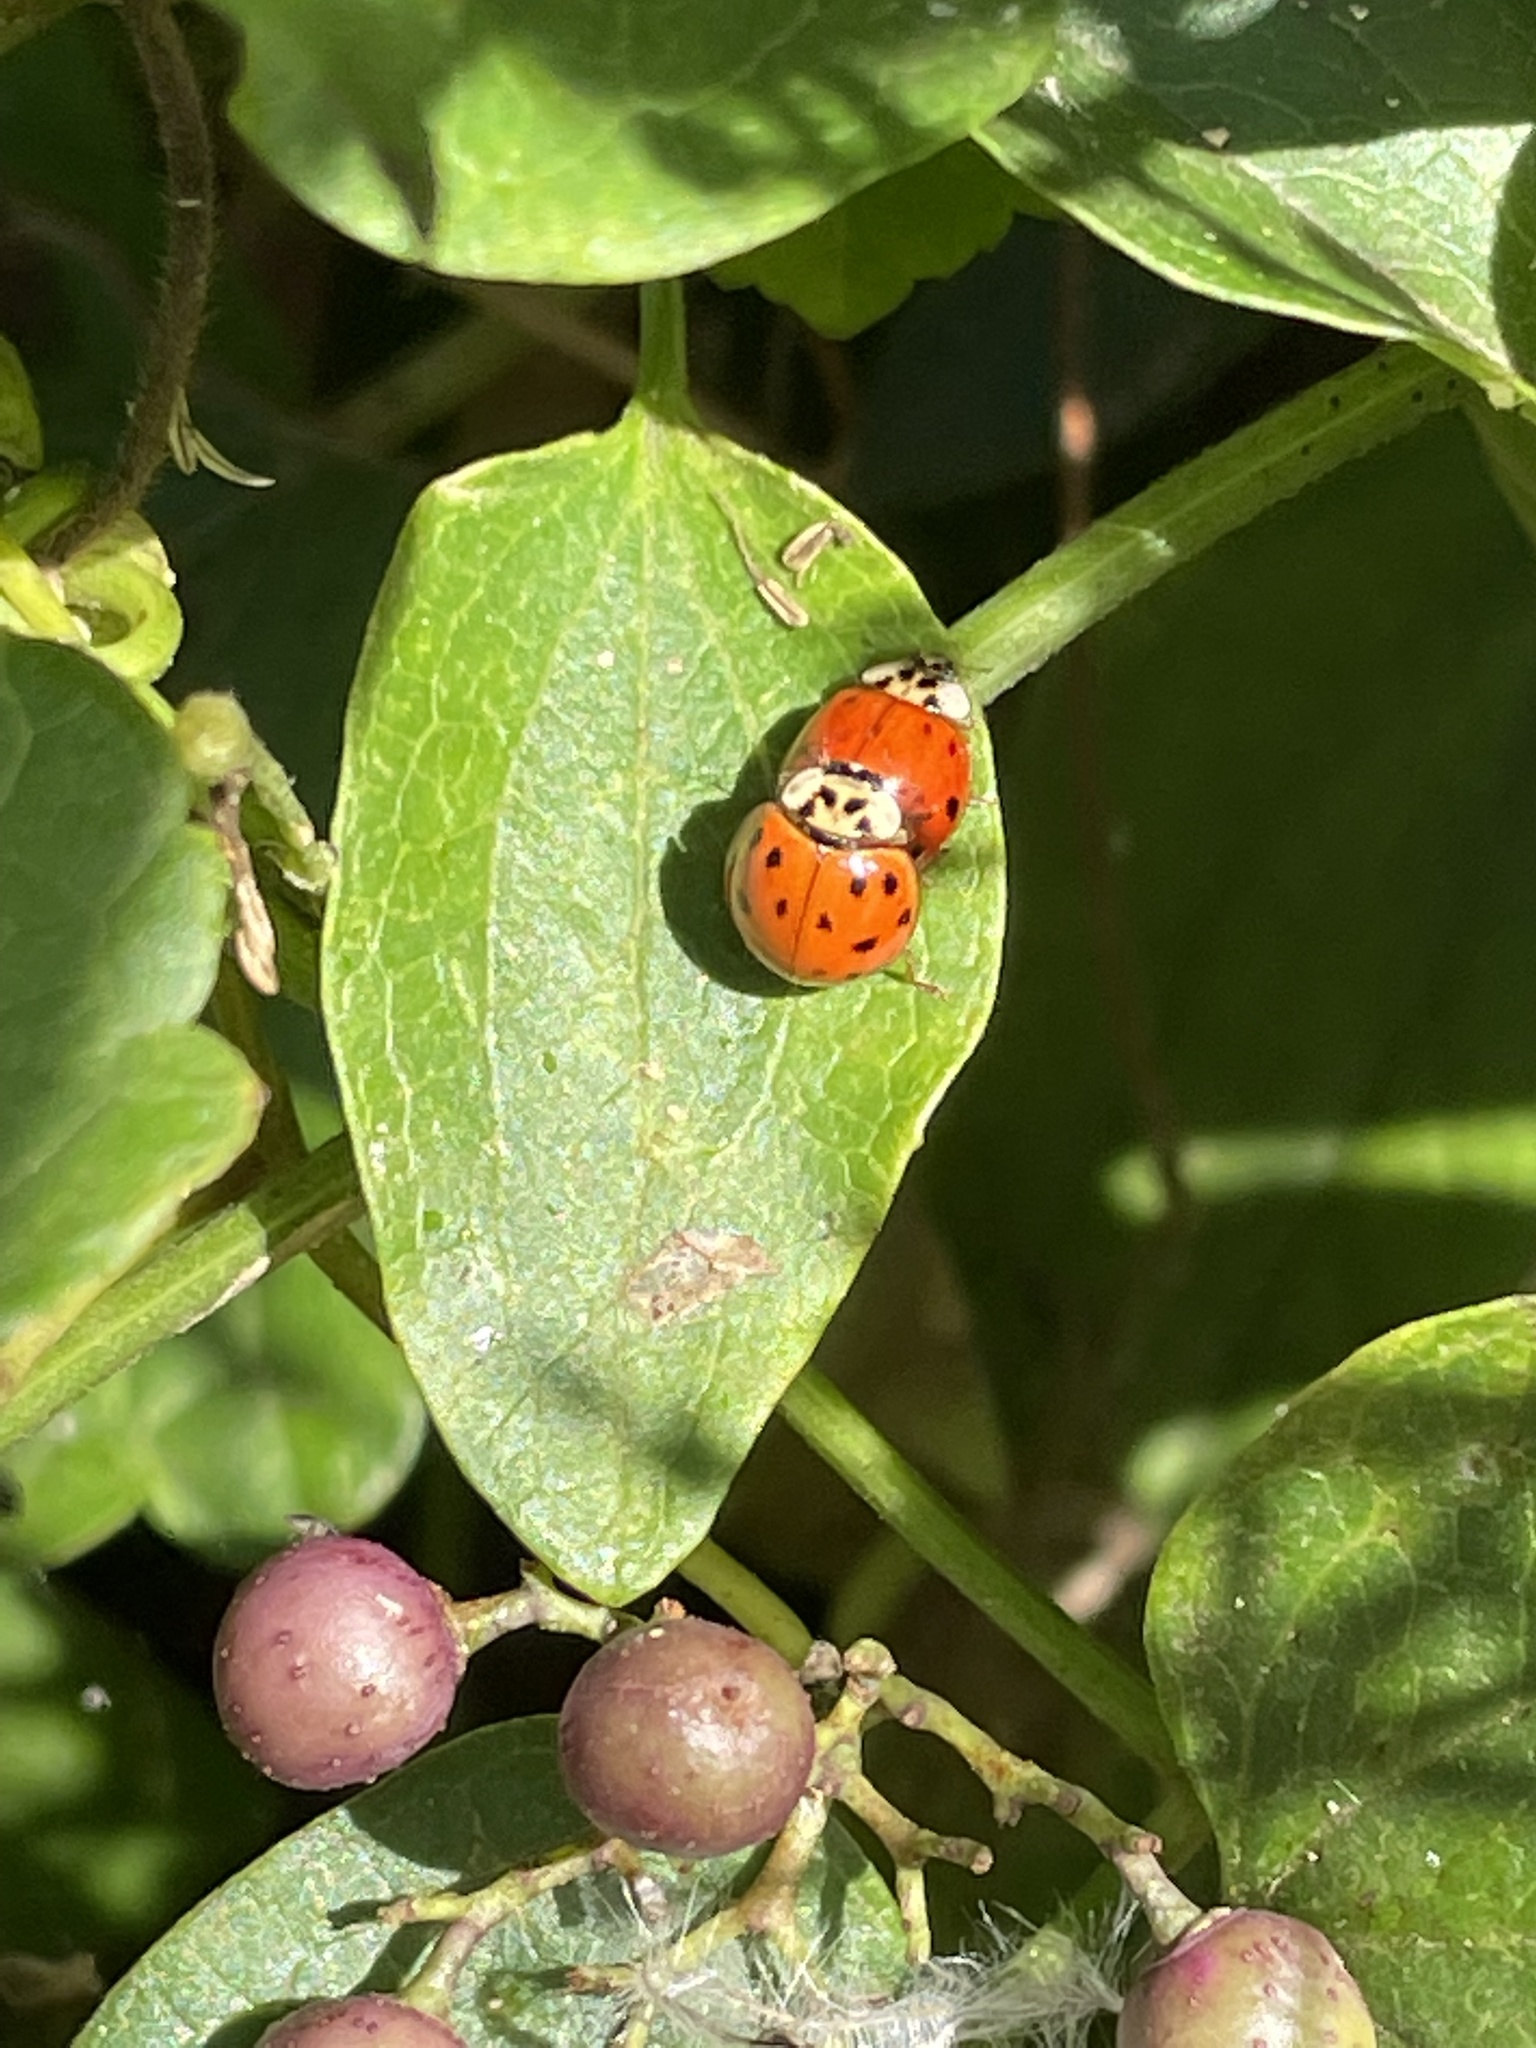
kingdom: Animalia
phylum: Arthropoda
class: Insecta
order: Coleoptera
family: Coccinellidae
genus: Harmonia
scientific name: Harmonia axyridis
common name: Harlequin ladybird
